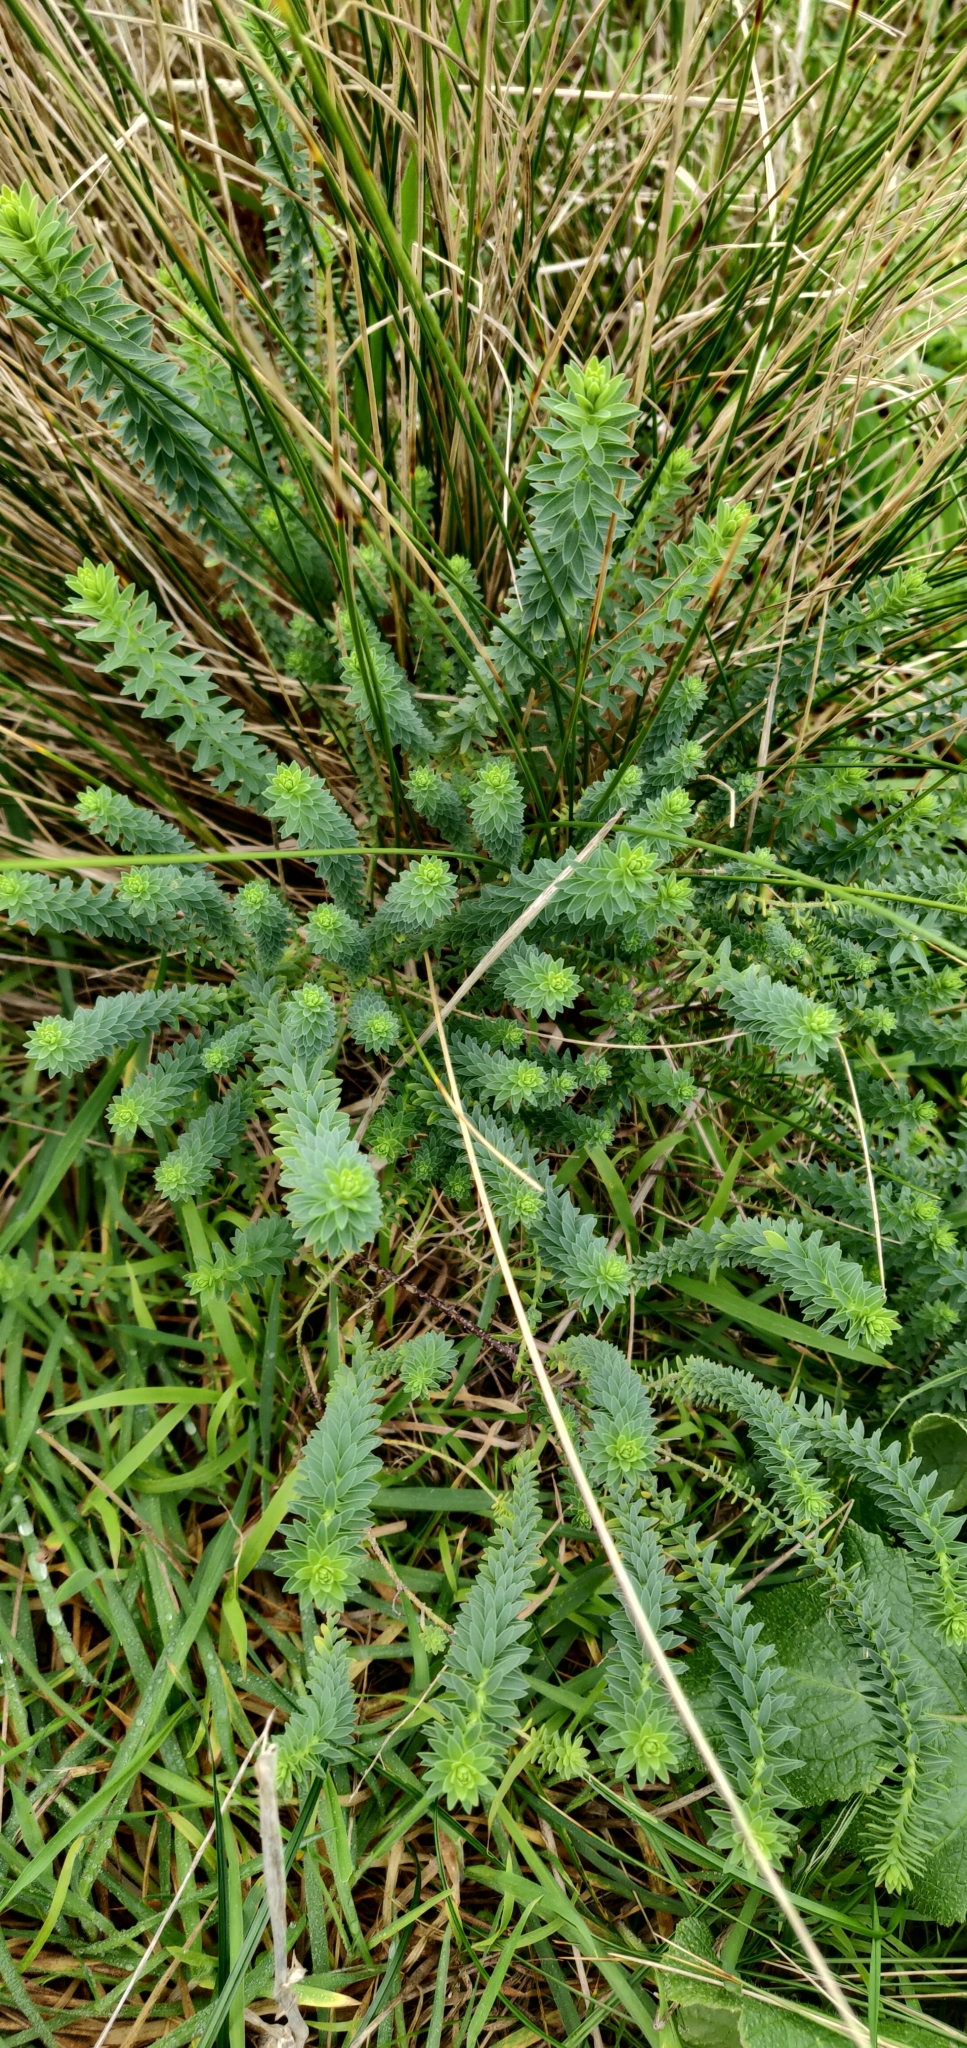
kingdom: Plantae
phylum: Tracheophyta
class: Magnoliopsida
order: Malpighiales
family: Linaceae
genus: Linum
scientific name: Linum monogynum
